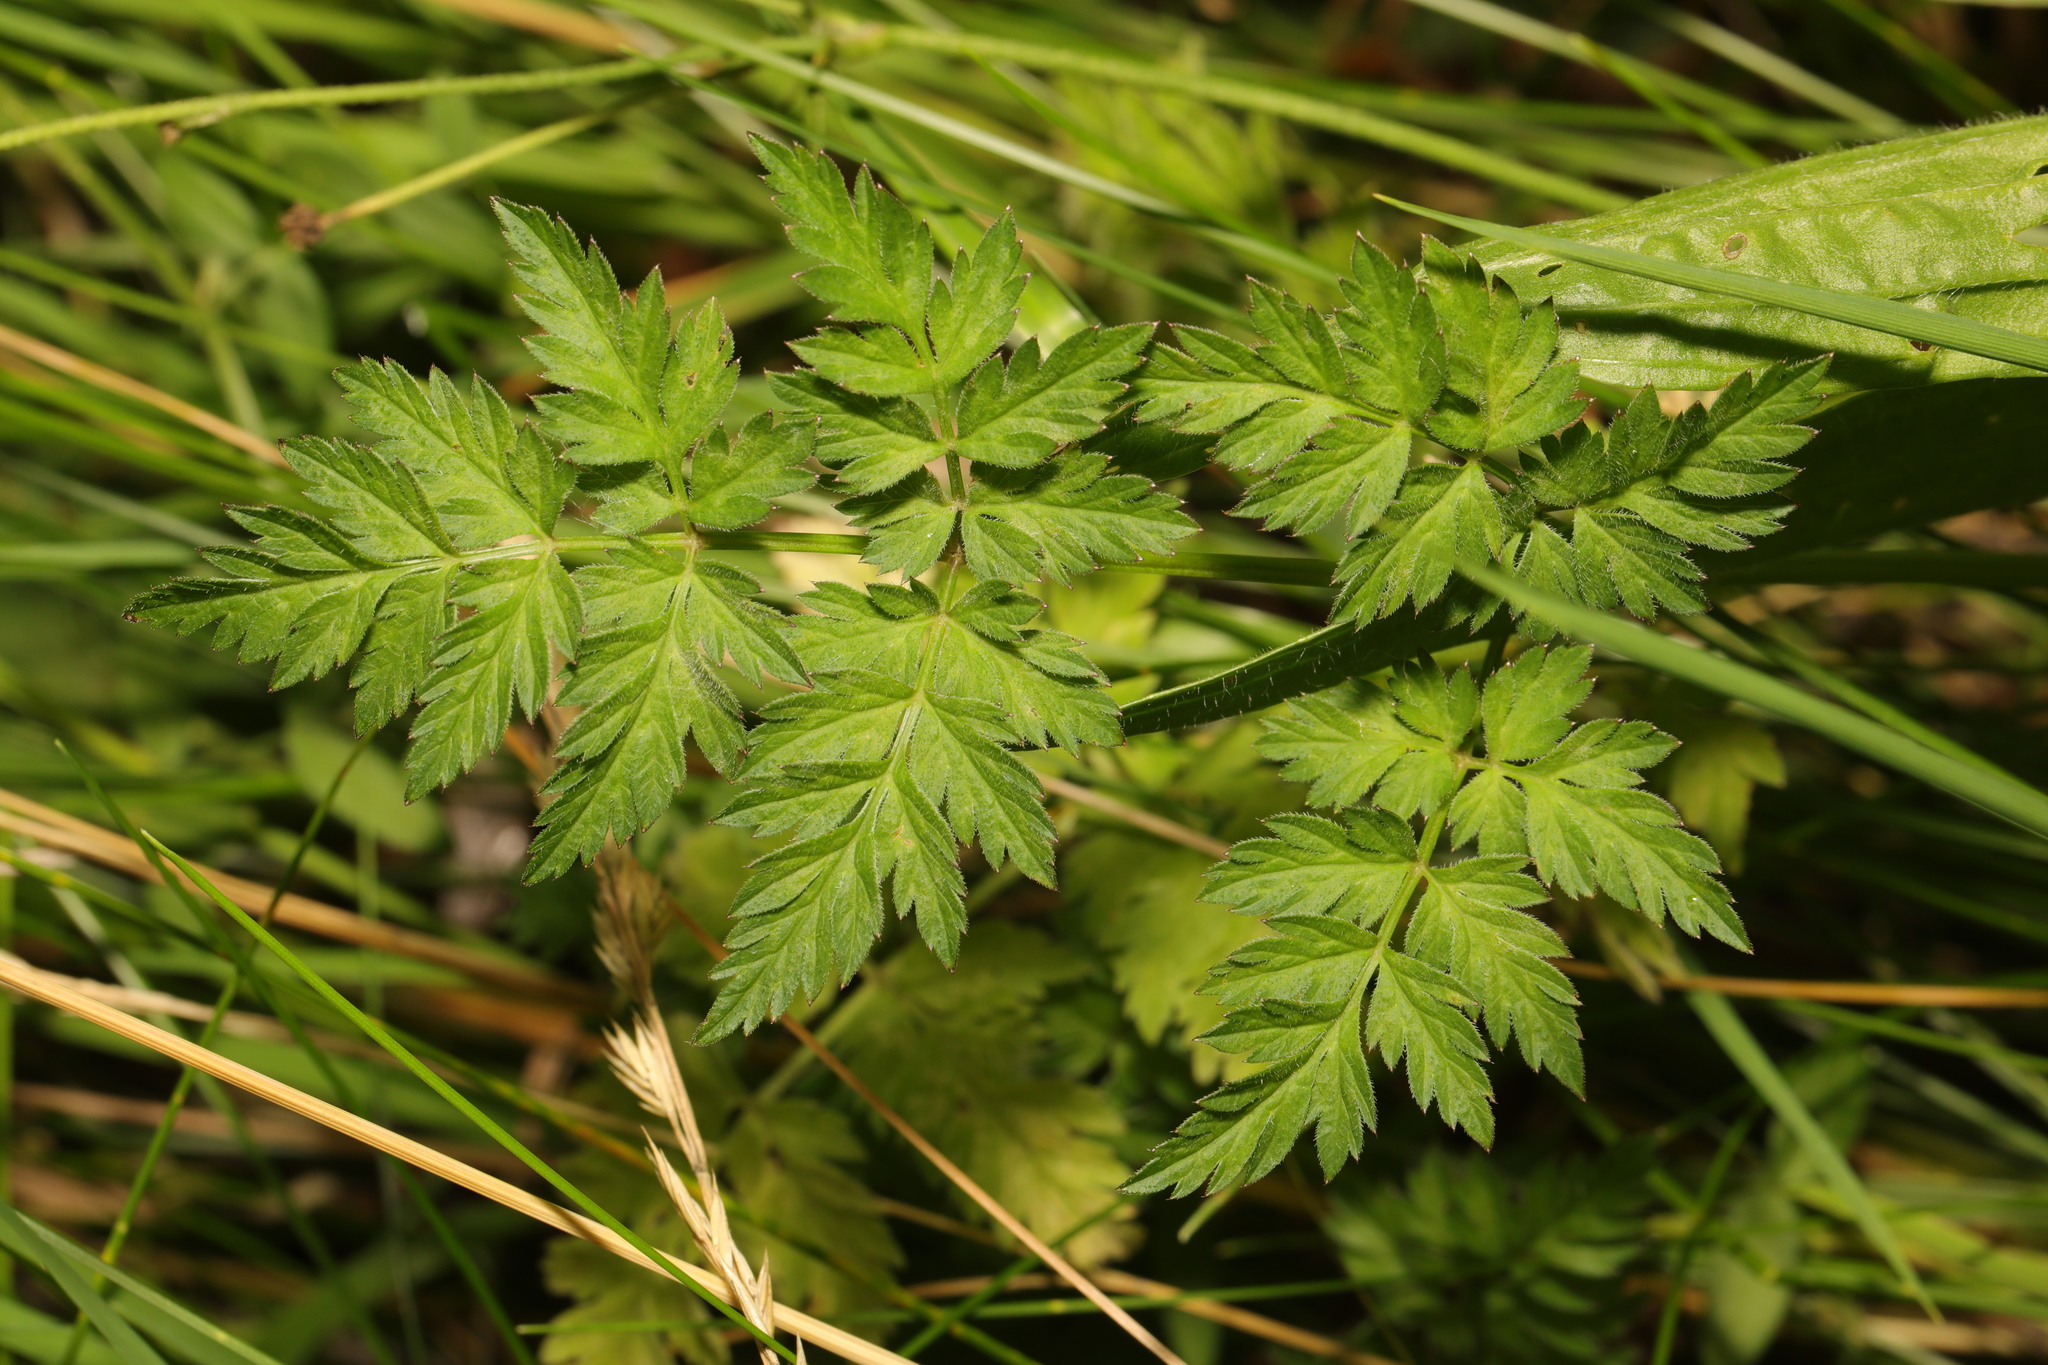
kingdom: Plantae
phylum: Tracheophyta
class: Magnoliopsida
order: Apiales
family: Apiaceae
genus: Anthriscus
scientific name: Anthriscus sylvestris
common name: Cow parsley
